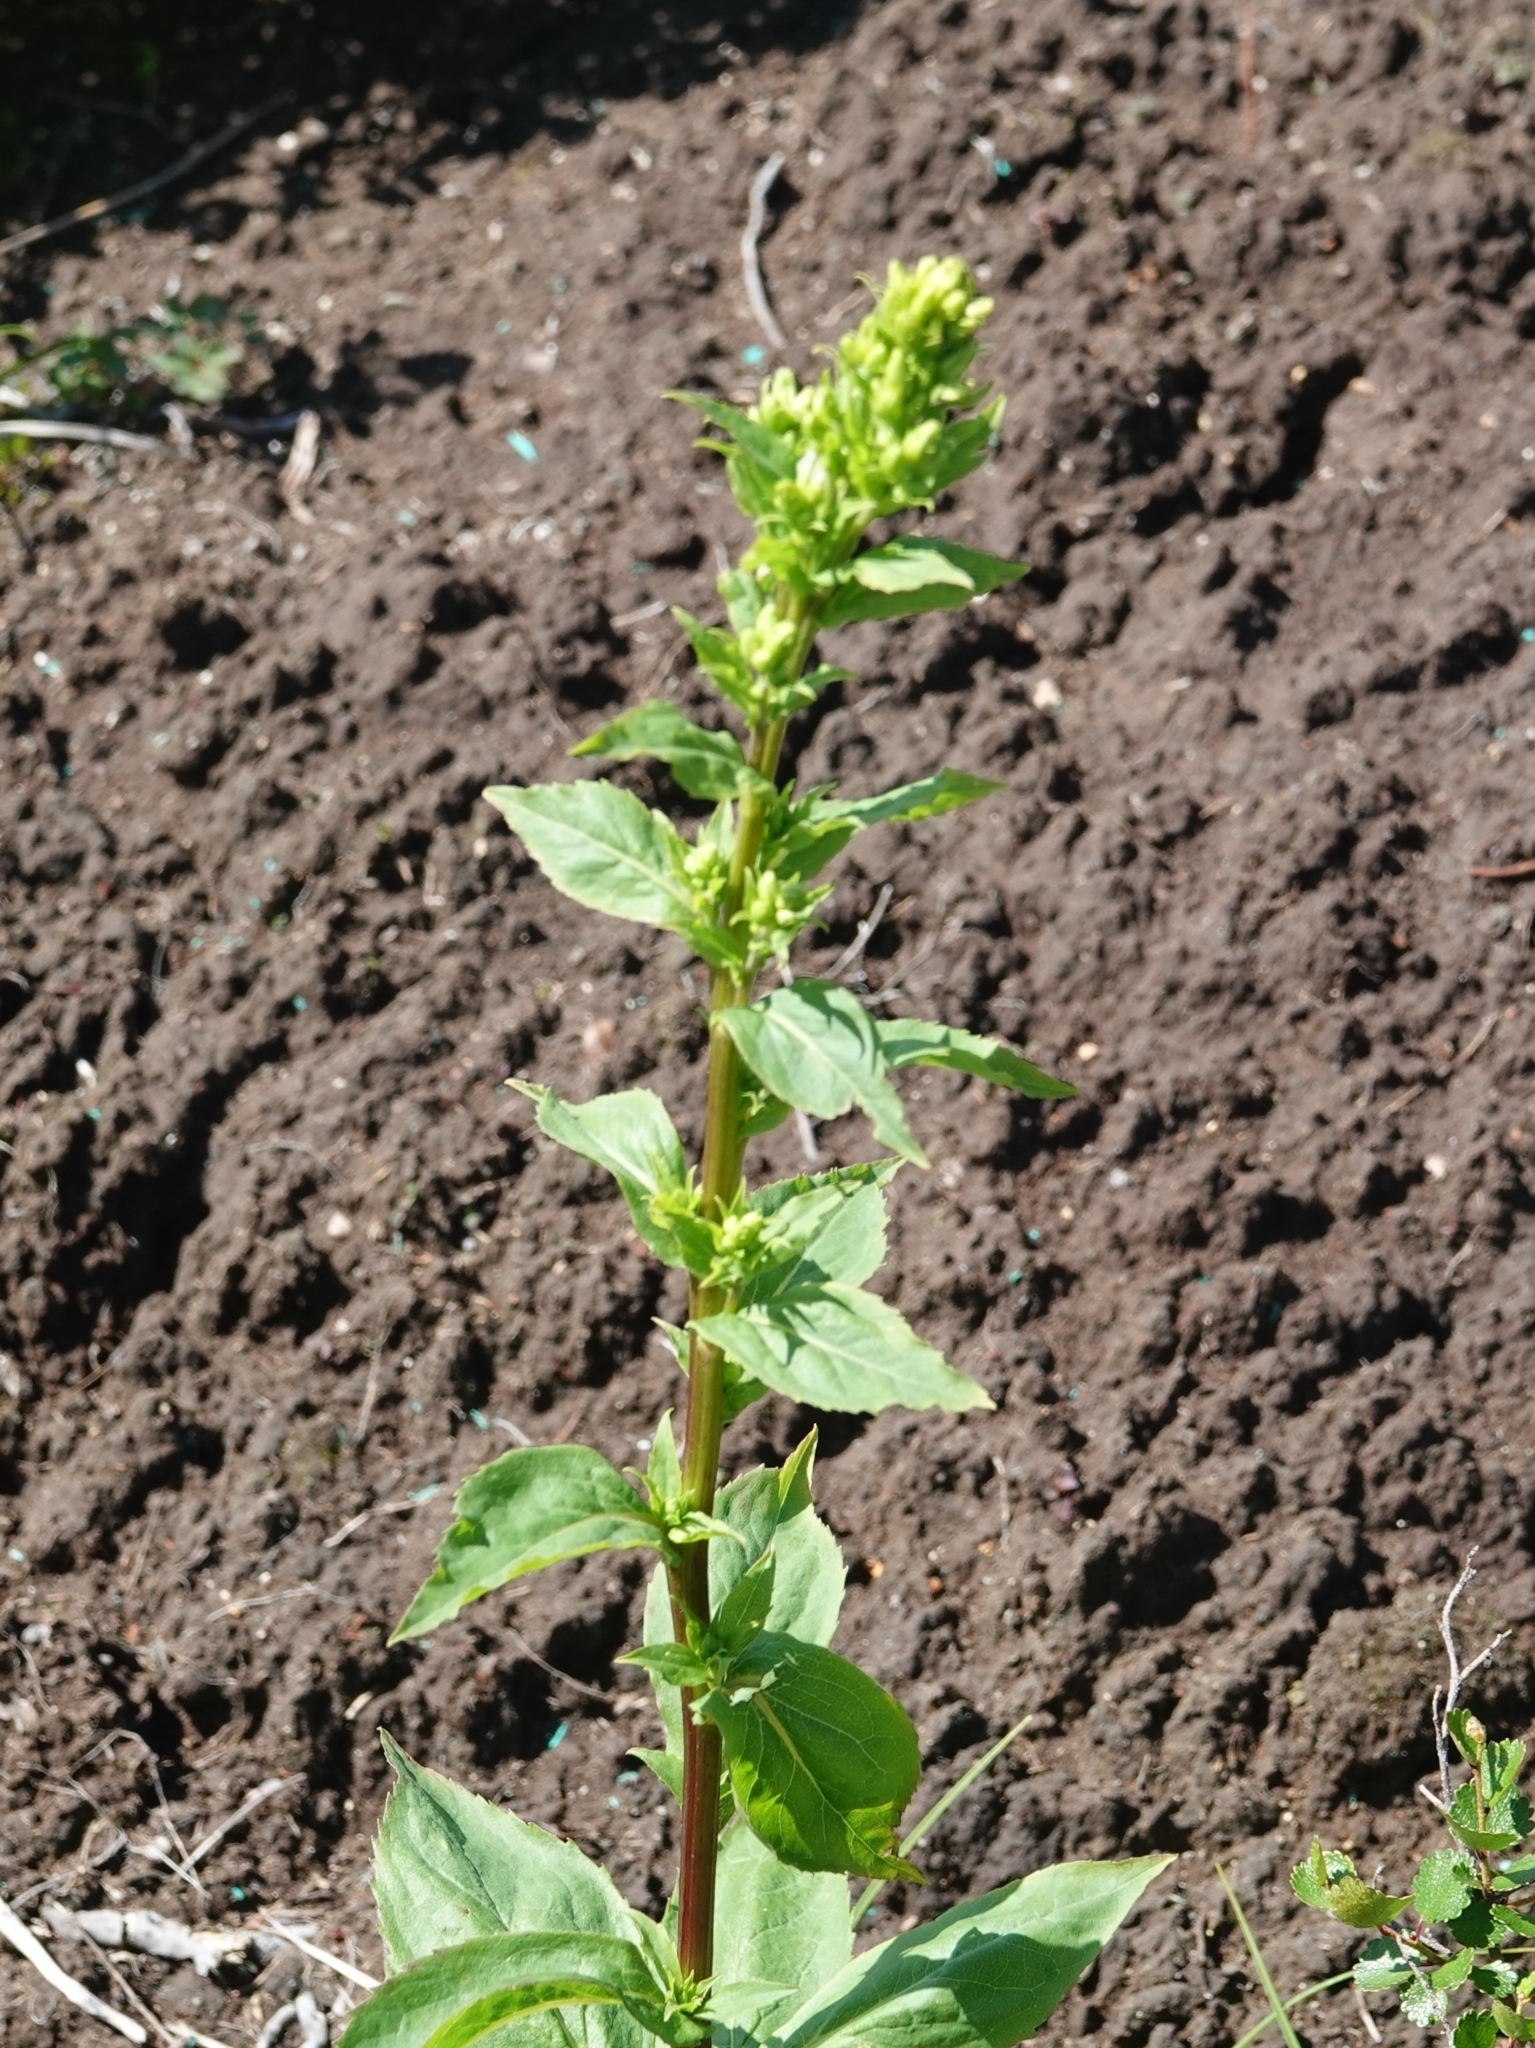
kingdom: Plantae
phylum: Tracheophyta
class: Magnoliopsida
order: Asterales
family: Asteraceae
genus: Solidago
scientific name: Solidago cuprea
